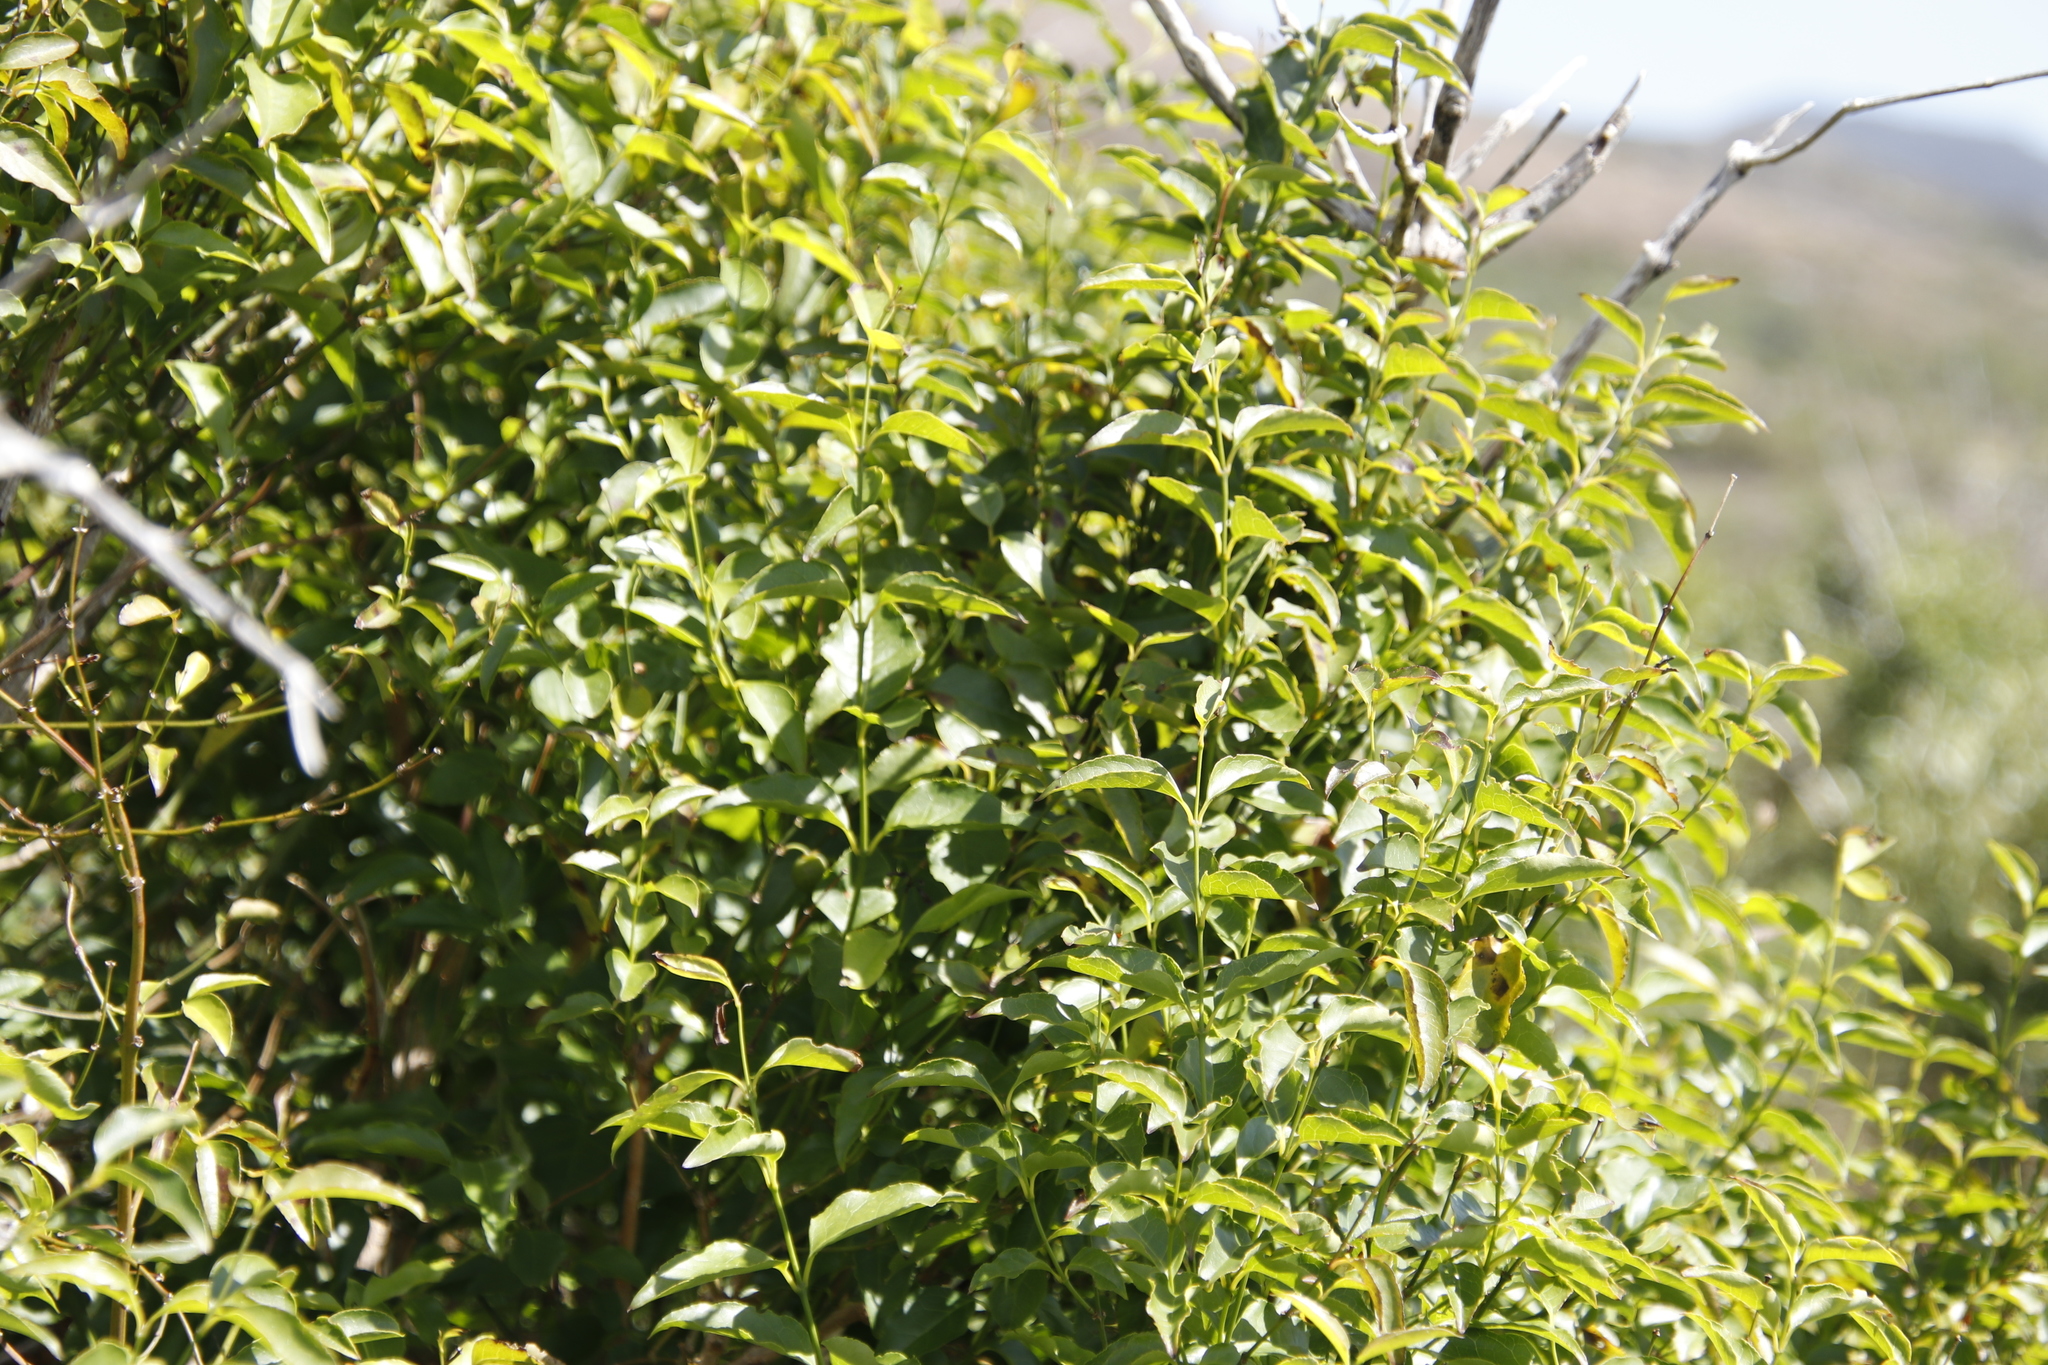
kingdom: Plantae
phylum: Tracheophyta
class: Magnoliopsida
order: Lamiales
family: Stilbaceae
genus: Halleria
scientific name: Halleria lucida
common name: Tree fuschia
